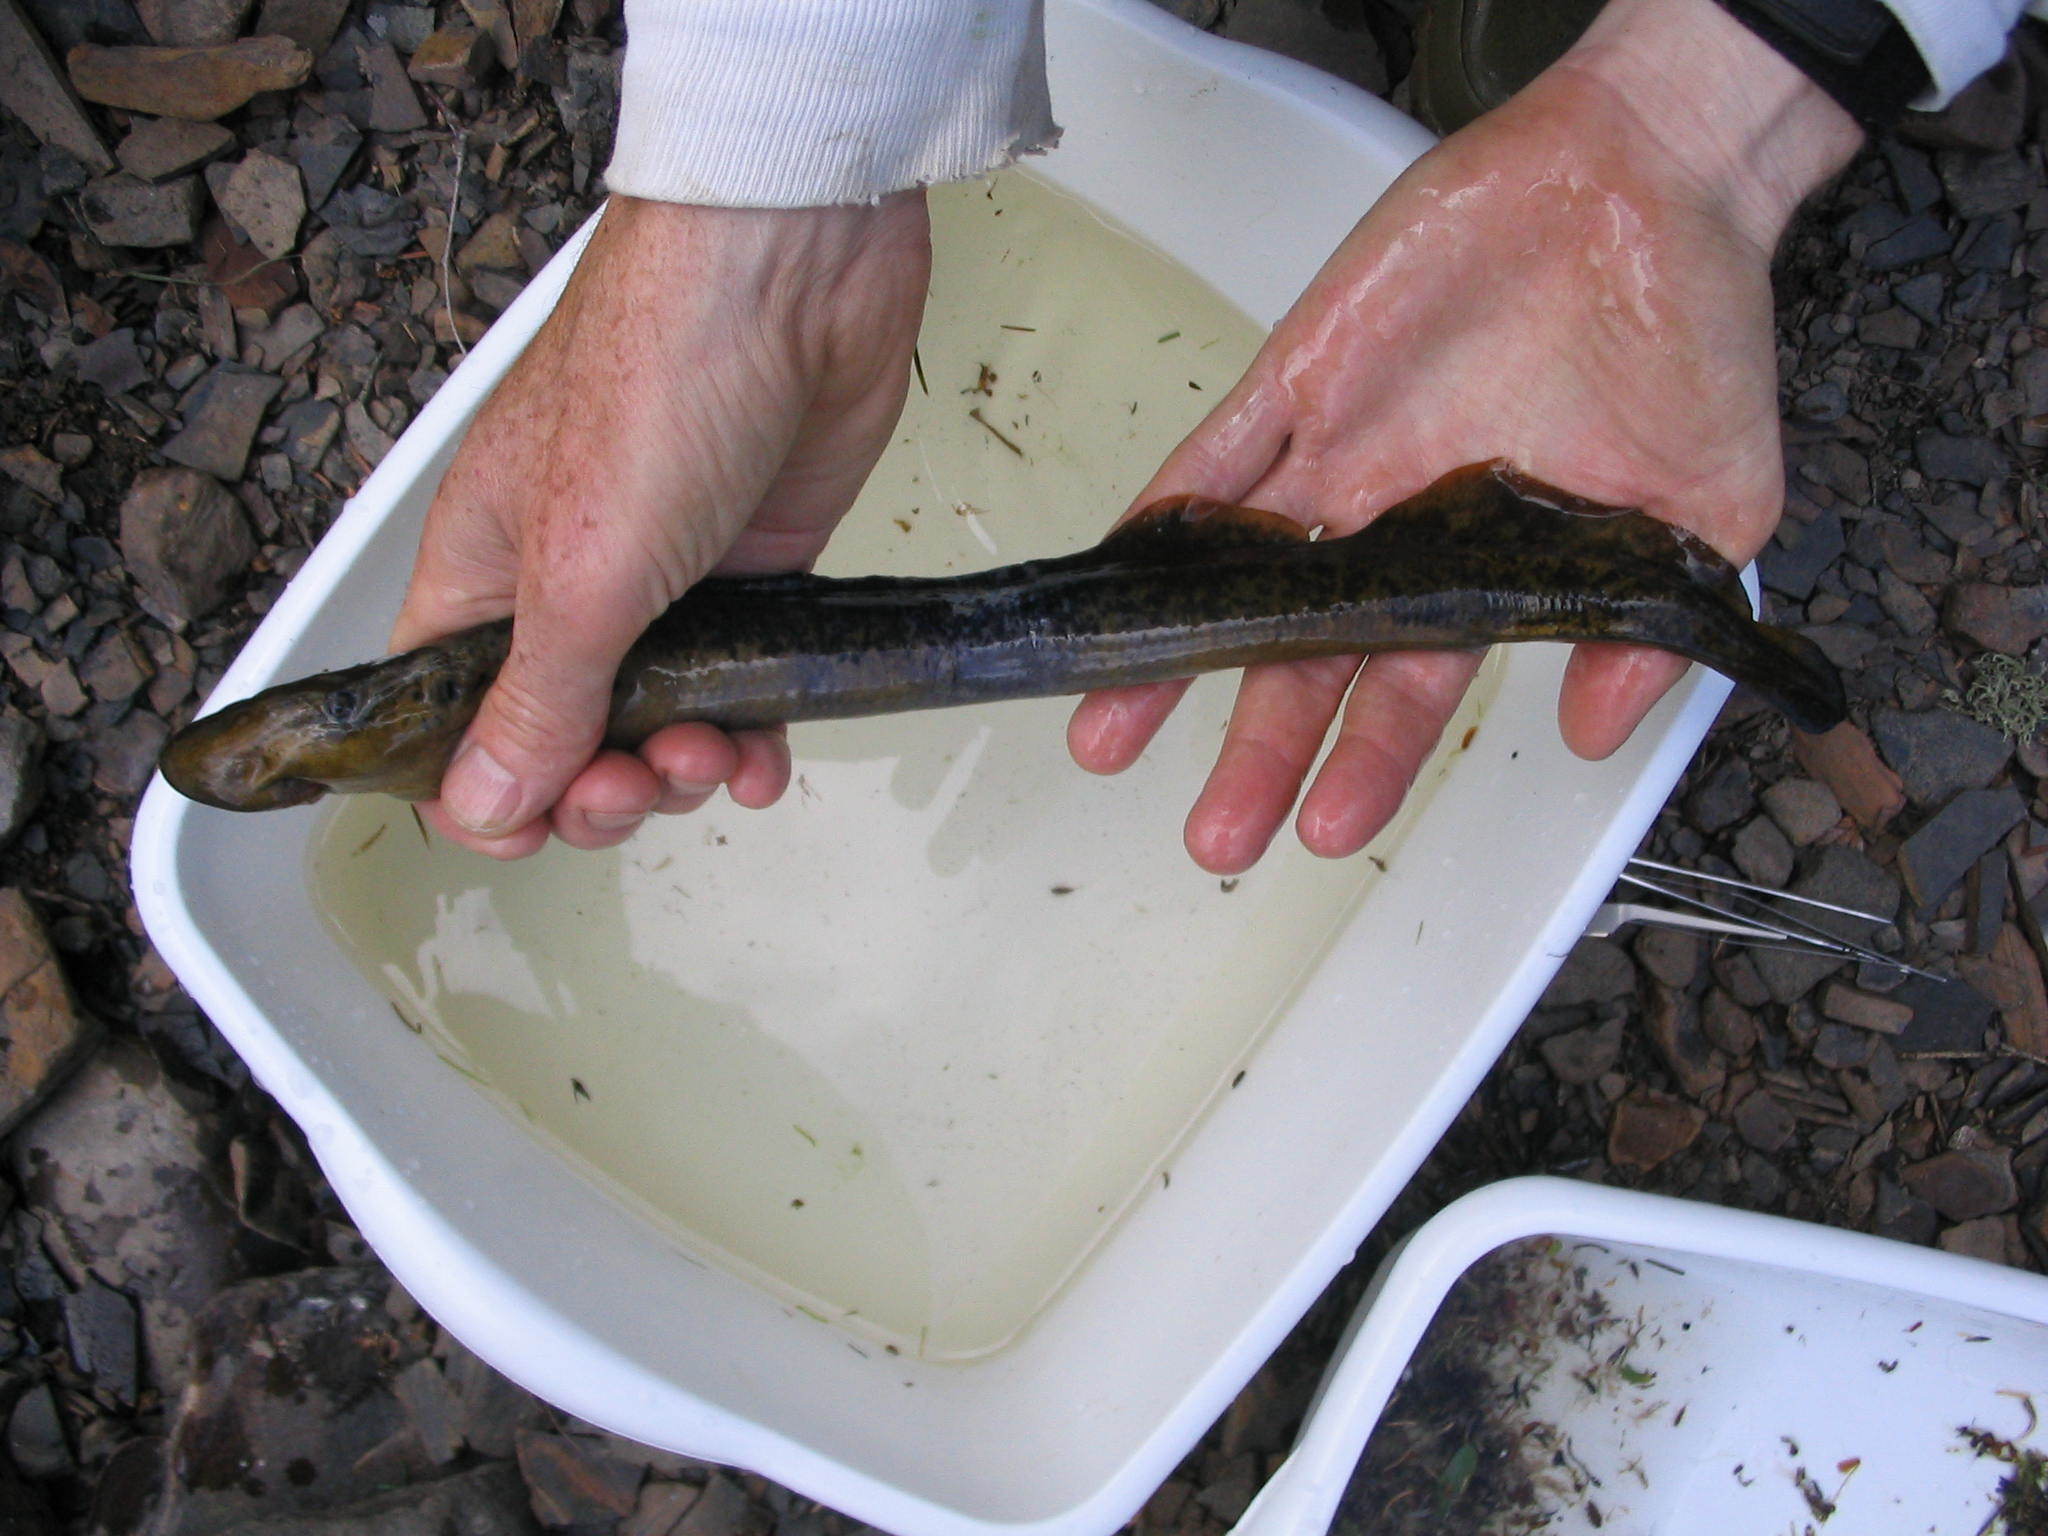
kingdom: Animalia
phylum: Chordata
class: Petromyzonti
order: Petromyzontiformes
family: Petromyzontidae
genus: Petromyzon
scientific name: Petromyzon marinus
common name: Sea lamprey
